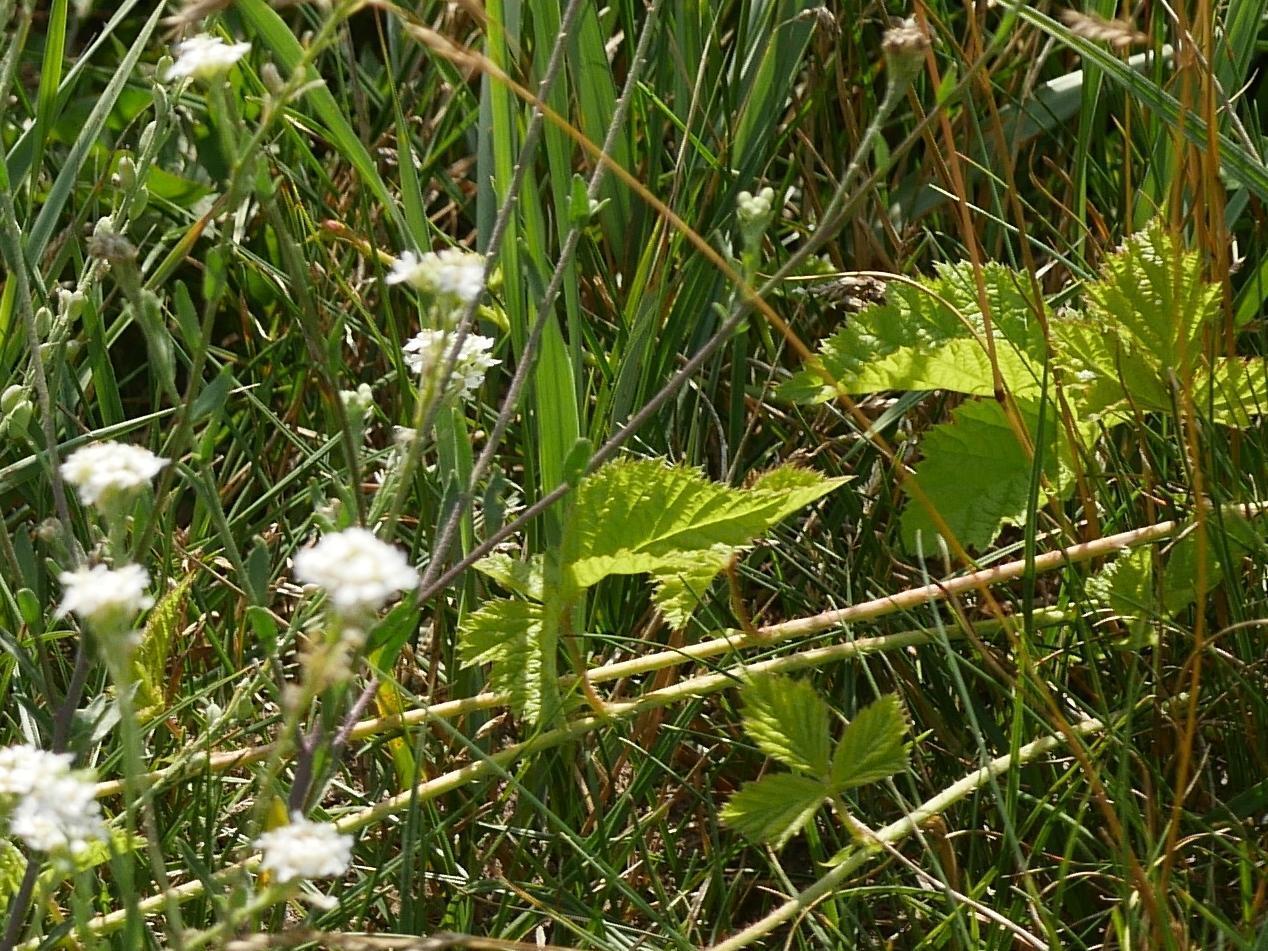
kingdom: Plantae
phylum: Tracheophyta
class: Magnoliopsida
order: Rosales
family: Cannabaceae
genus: Humulus
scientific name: Humulus lupulus
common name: Hop
